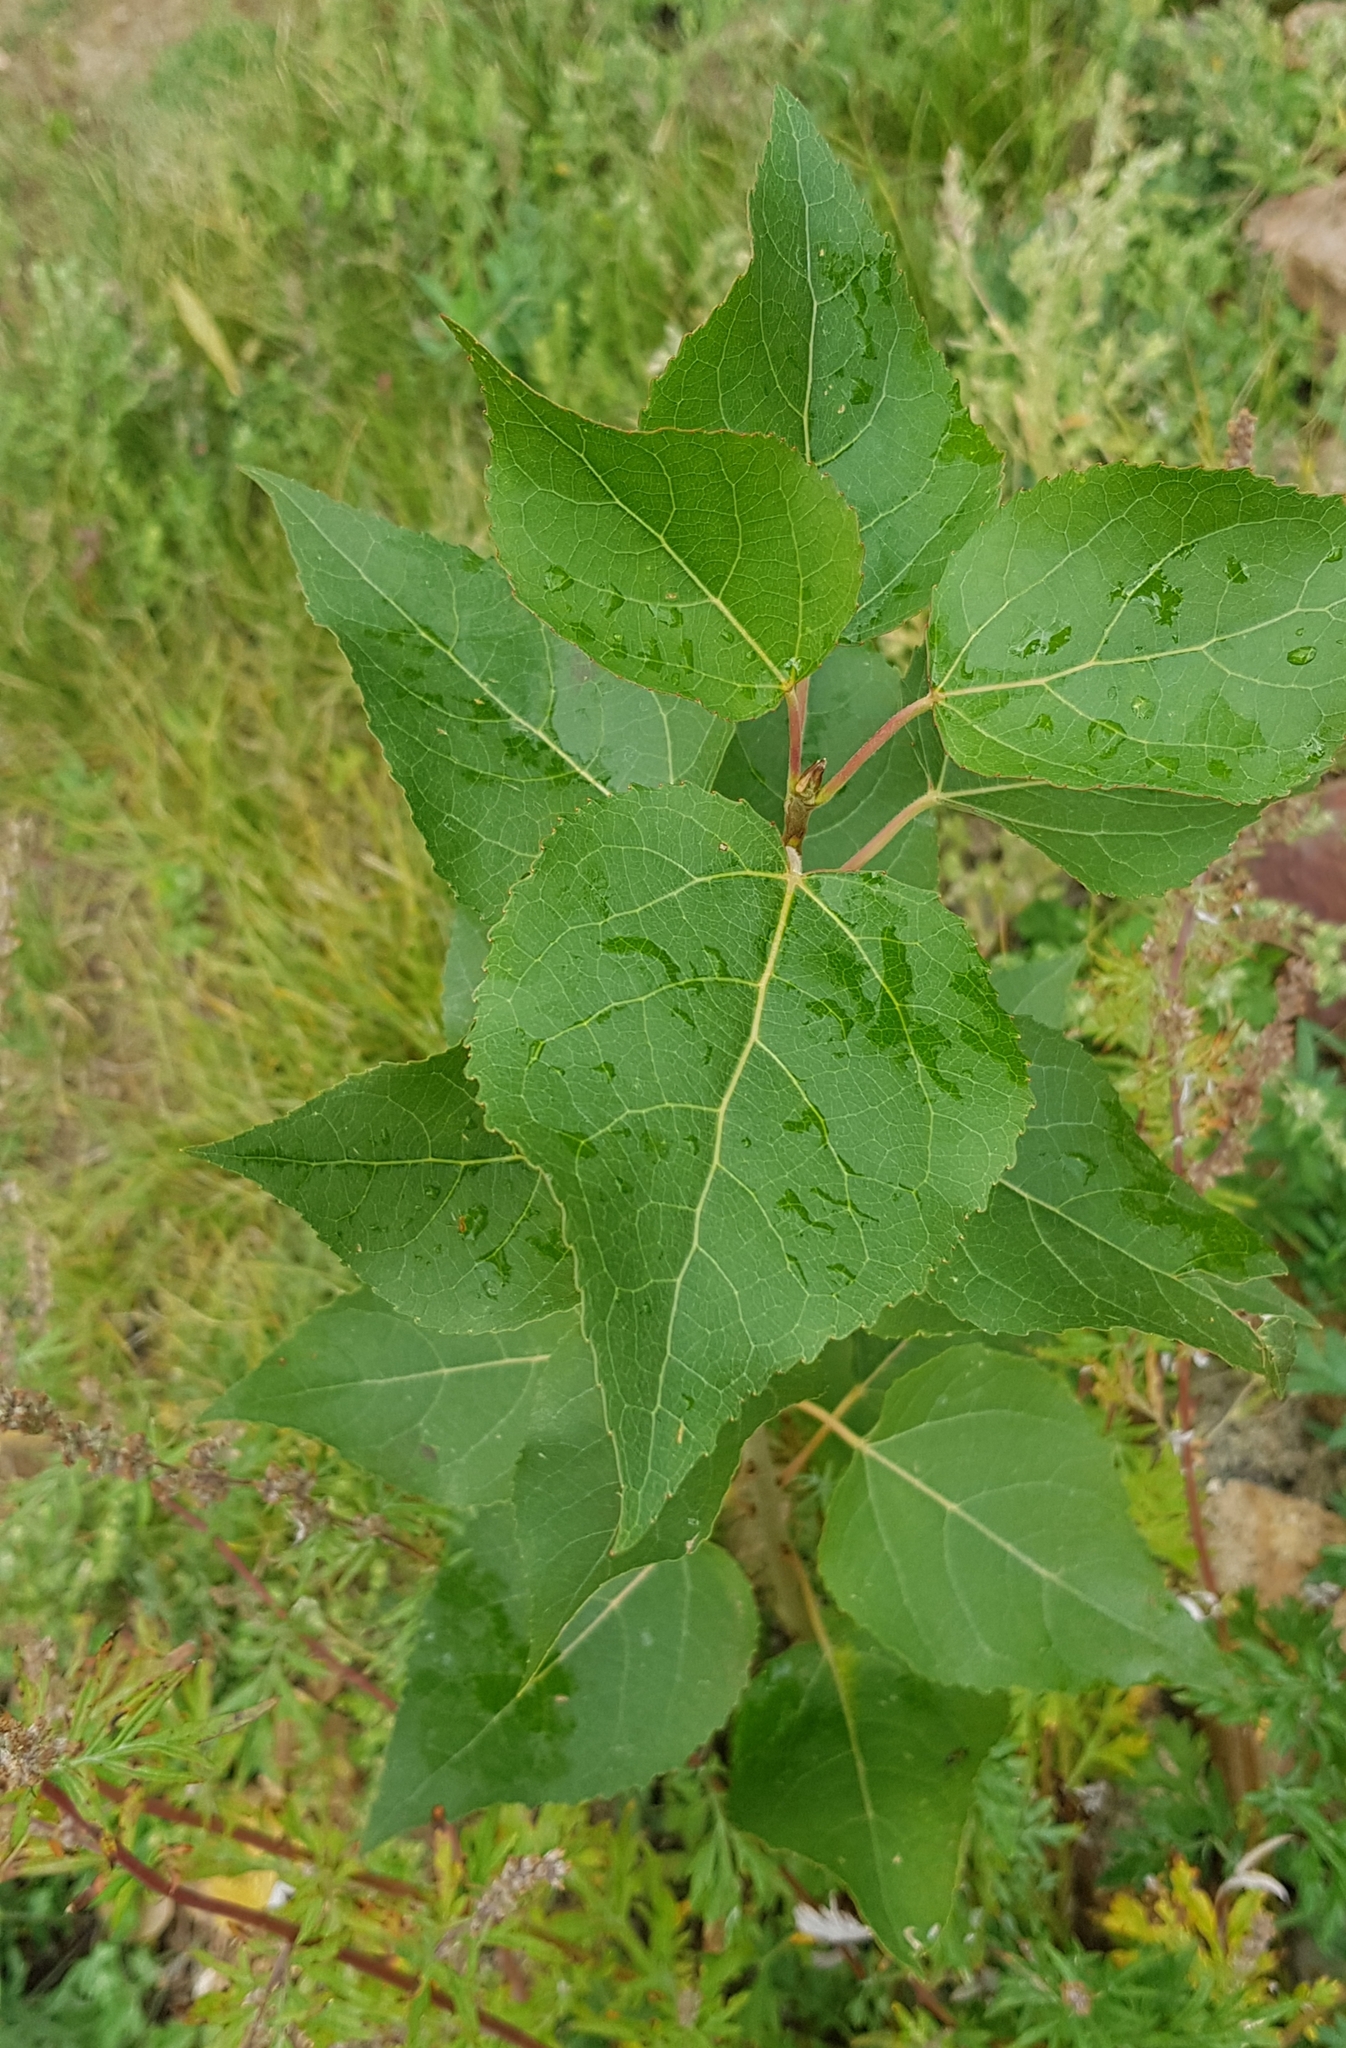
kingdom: Plantae
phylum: Tracheophyta
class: Magnoliopsida
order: Malpighiales
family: Salicaceae
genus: Populus
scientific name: Populus laurifolia
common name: Laurel-leaf poplar
